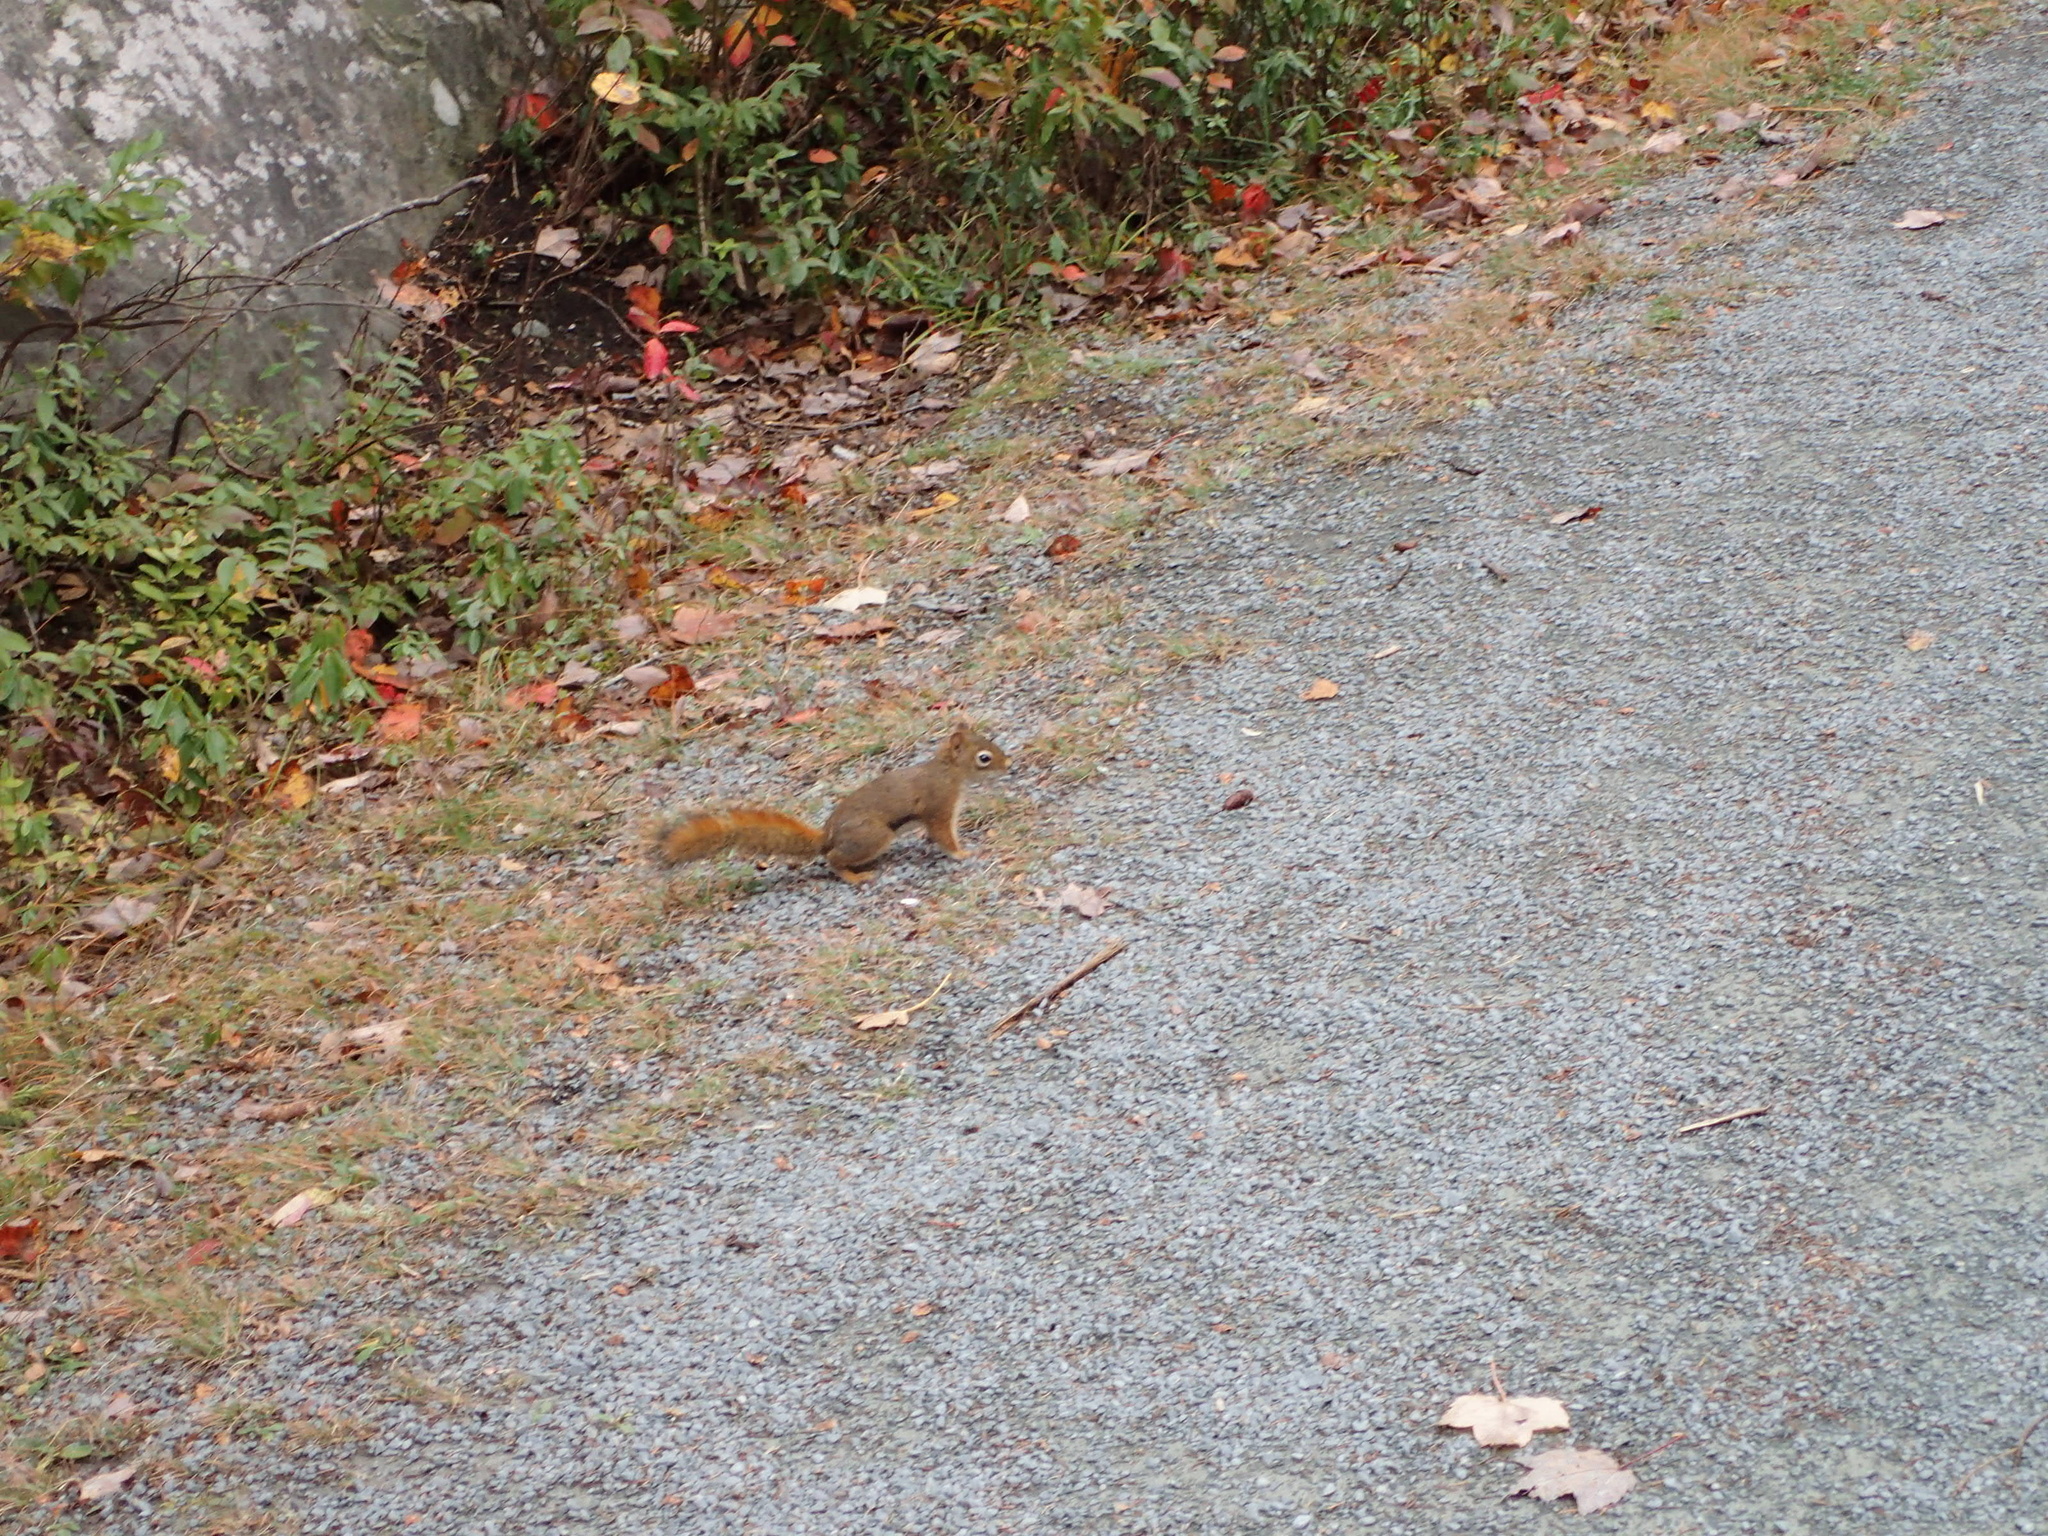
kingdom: Animalia
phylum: Chordata
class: Mammalia
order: Rodentia
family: Sciuridae
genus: Tamiasciurus
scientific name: Tamiasciurus hudsonicus
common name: Red squirrel
